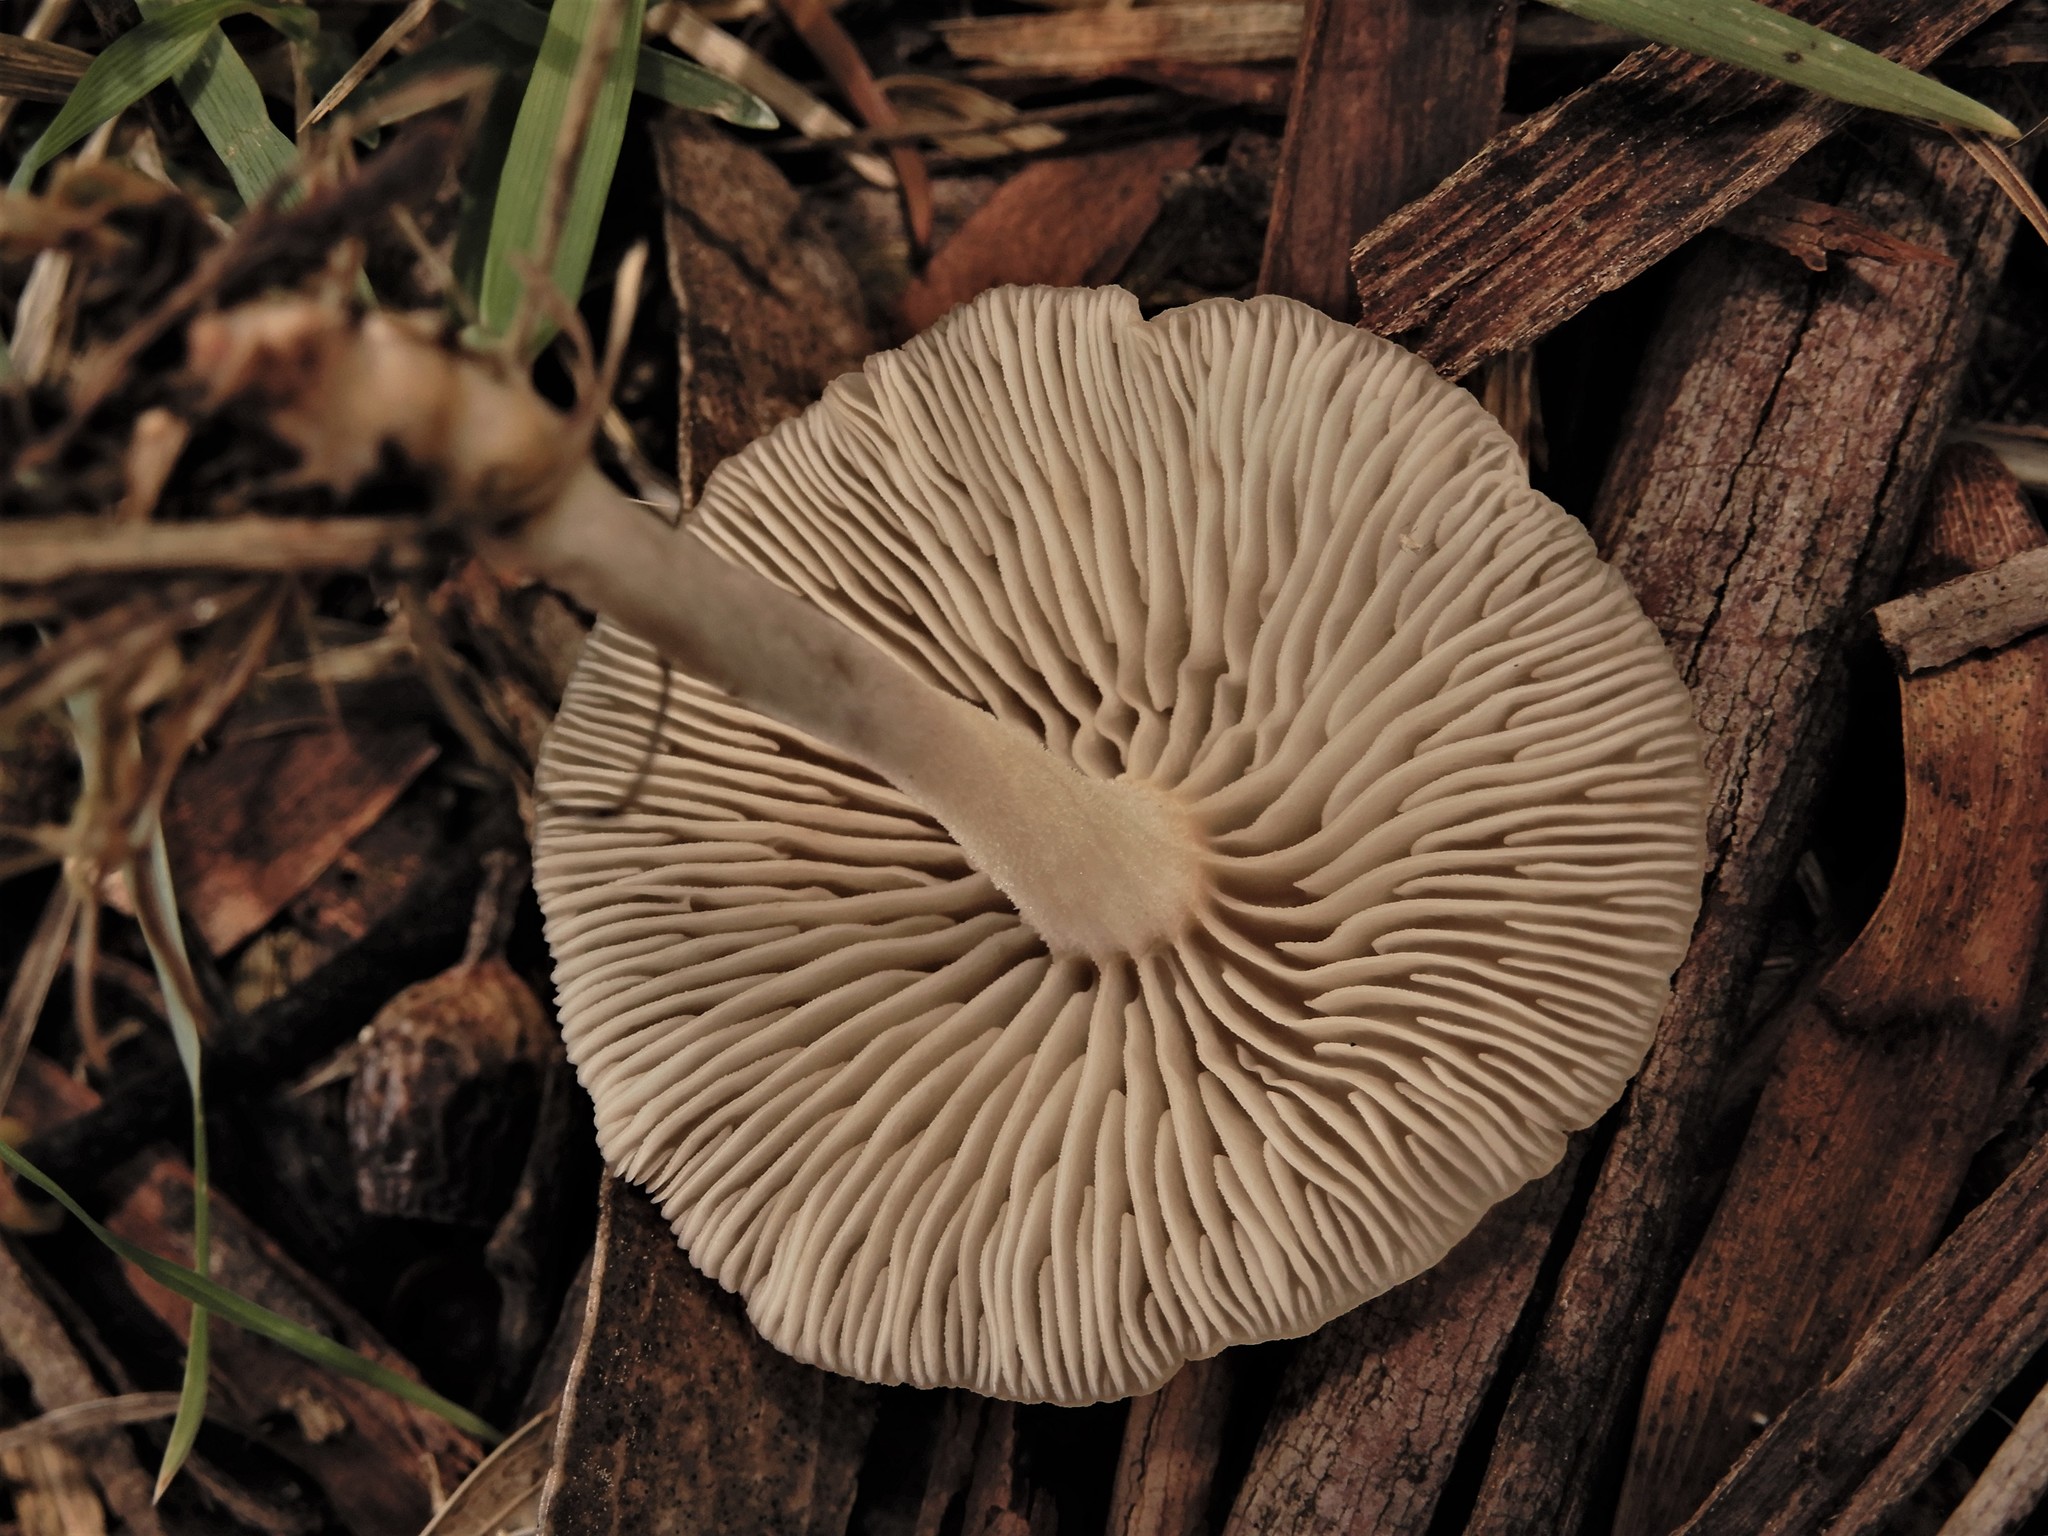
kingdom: Fungi
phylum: Basidiomycota
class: Agaricomycetes
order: Agaricales
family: Omphalotaceae
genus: Collybiopsis
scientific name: Collybiopsis subpruinosa
